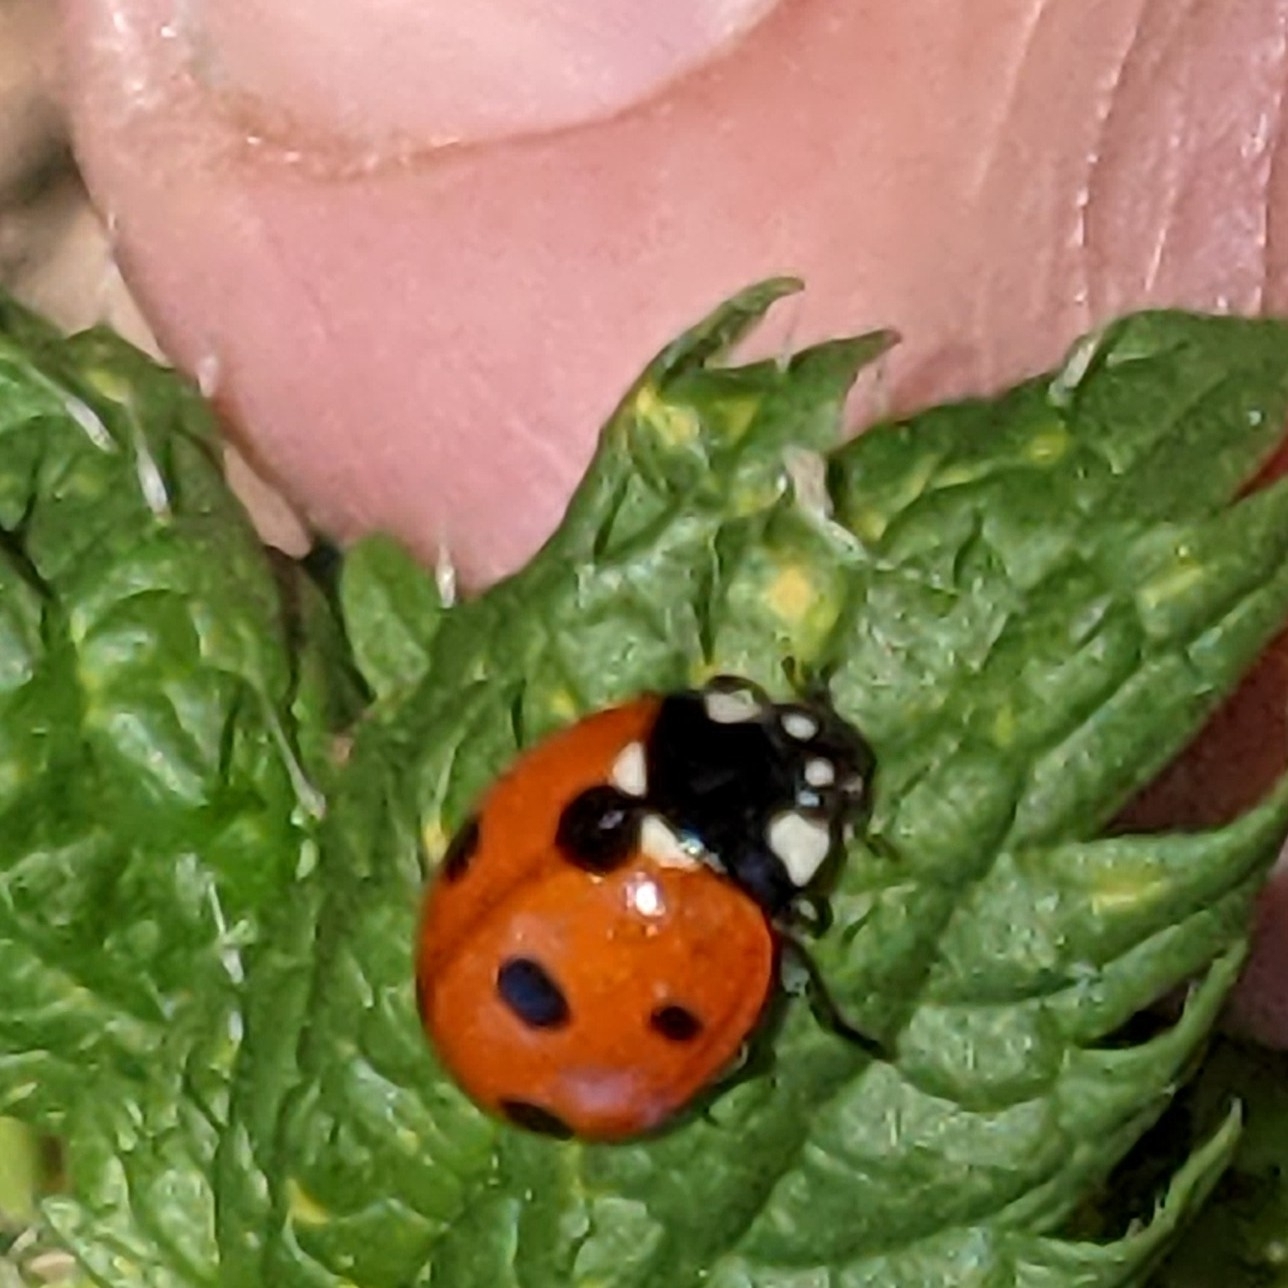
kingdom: Animalia
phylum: Arthropoda
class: Insecta
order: Coleoptera
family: Coccinellidae
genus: Coccinella
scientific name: Coccinella septempunctata
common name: Sevenspotted lady beetle
